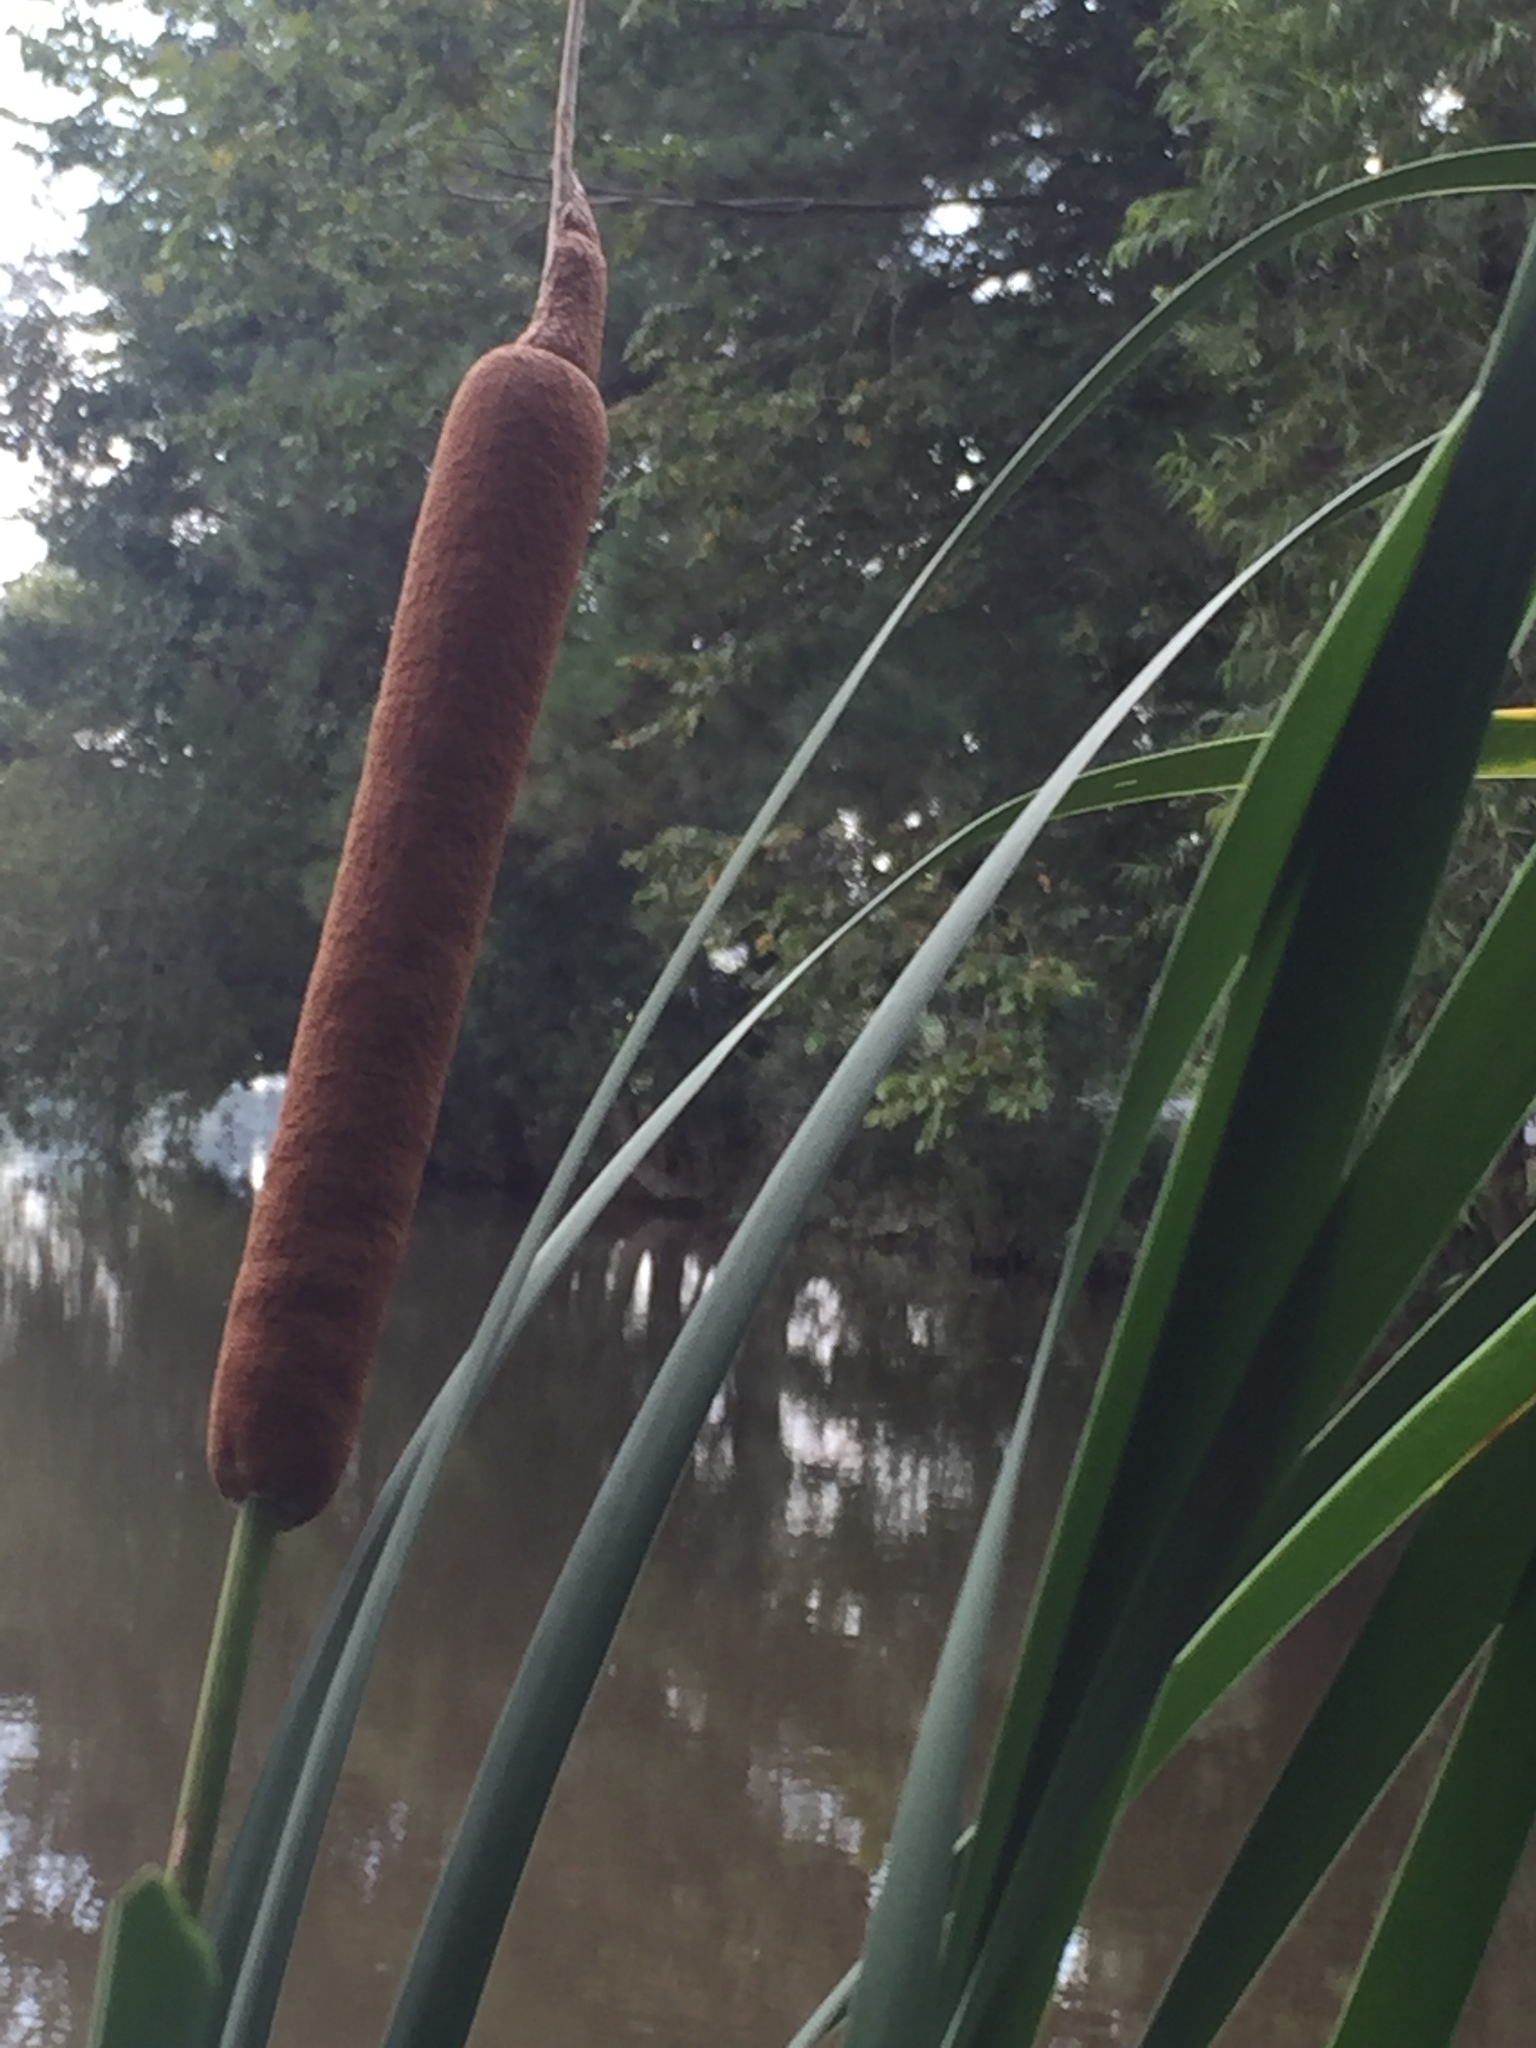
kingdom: Plantae
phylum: Tracheophyta
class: Liliopsida
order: Poales
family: Typhaceae
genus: Typha
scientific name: Typha latifolia
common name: Broadleaf cattail
